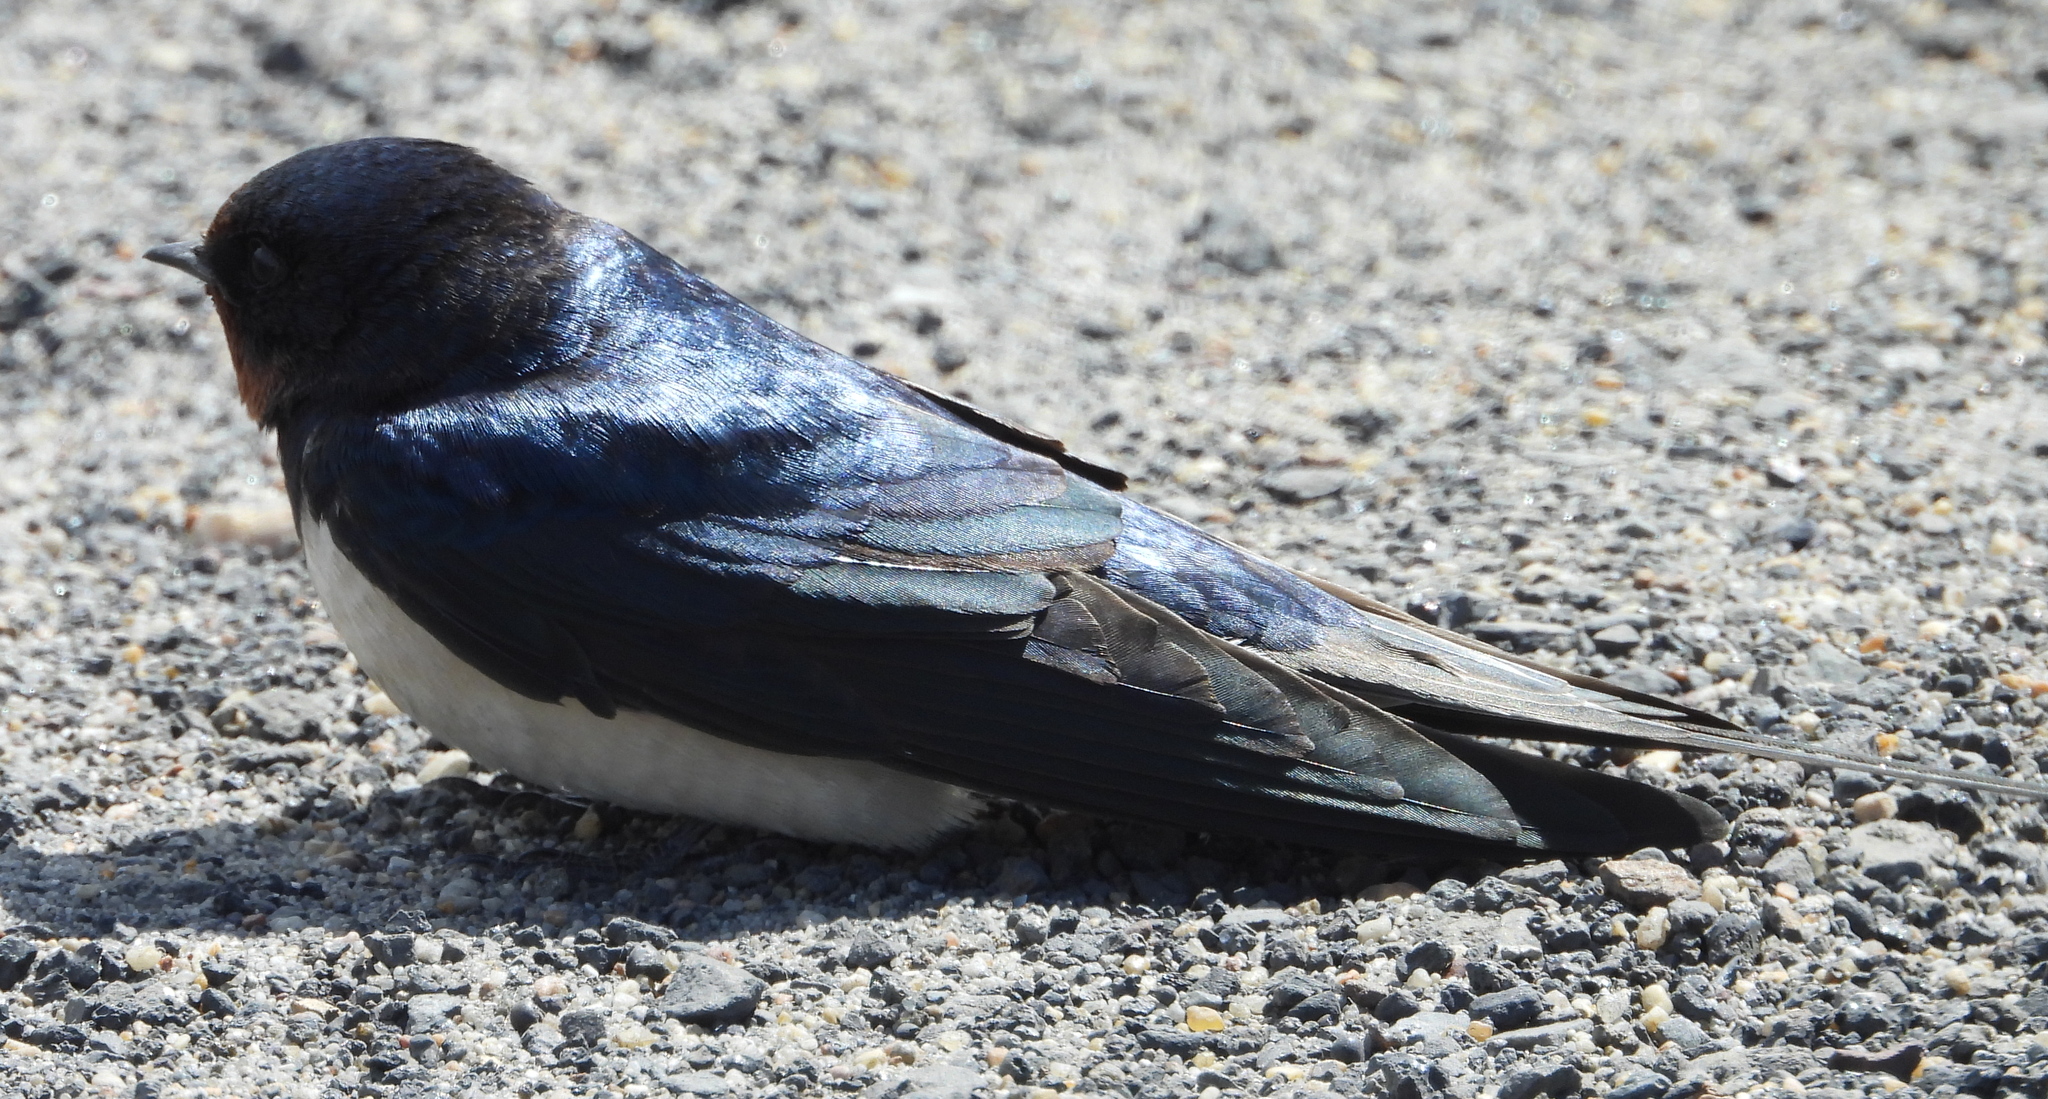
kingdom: Animalia
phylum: Chordata
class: Aves
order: Passeriformes
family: Hirundinidae
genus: Hirundo
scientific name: Hirundo rustica
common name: Barn swallow
